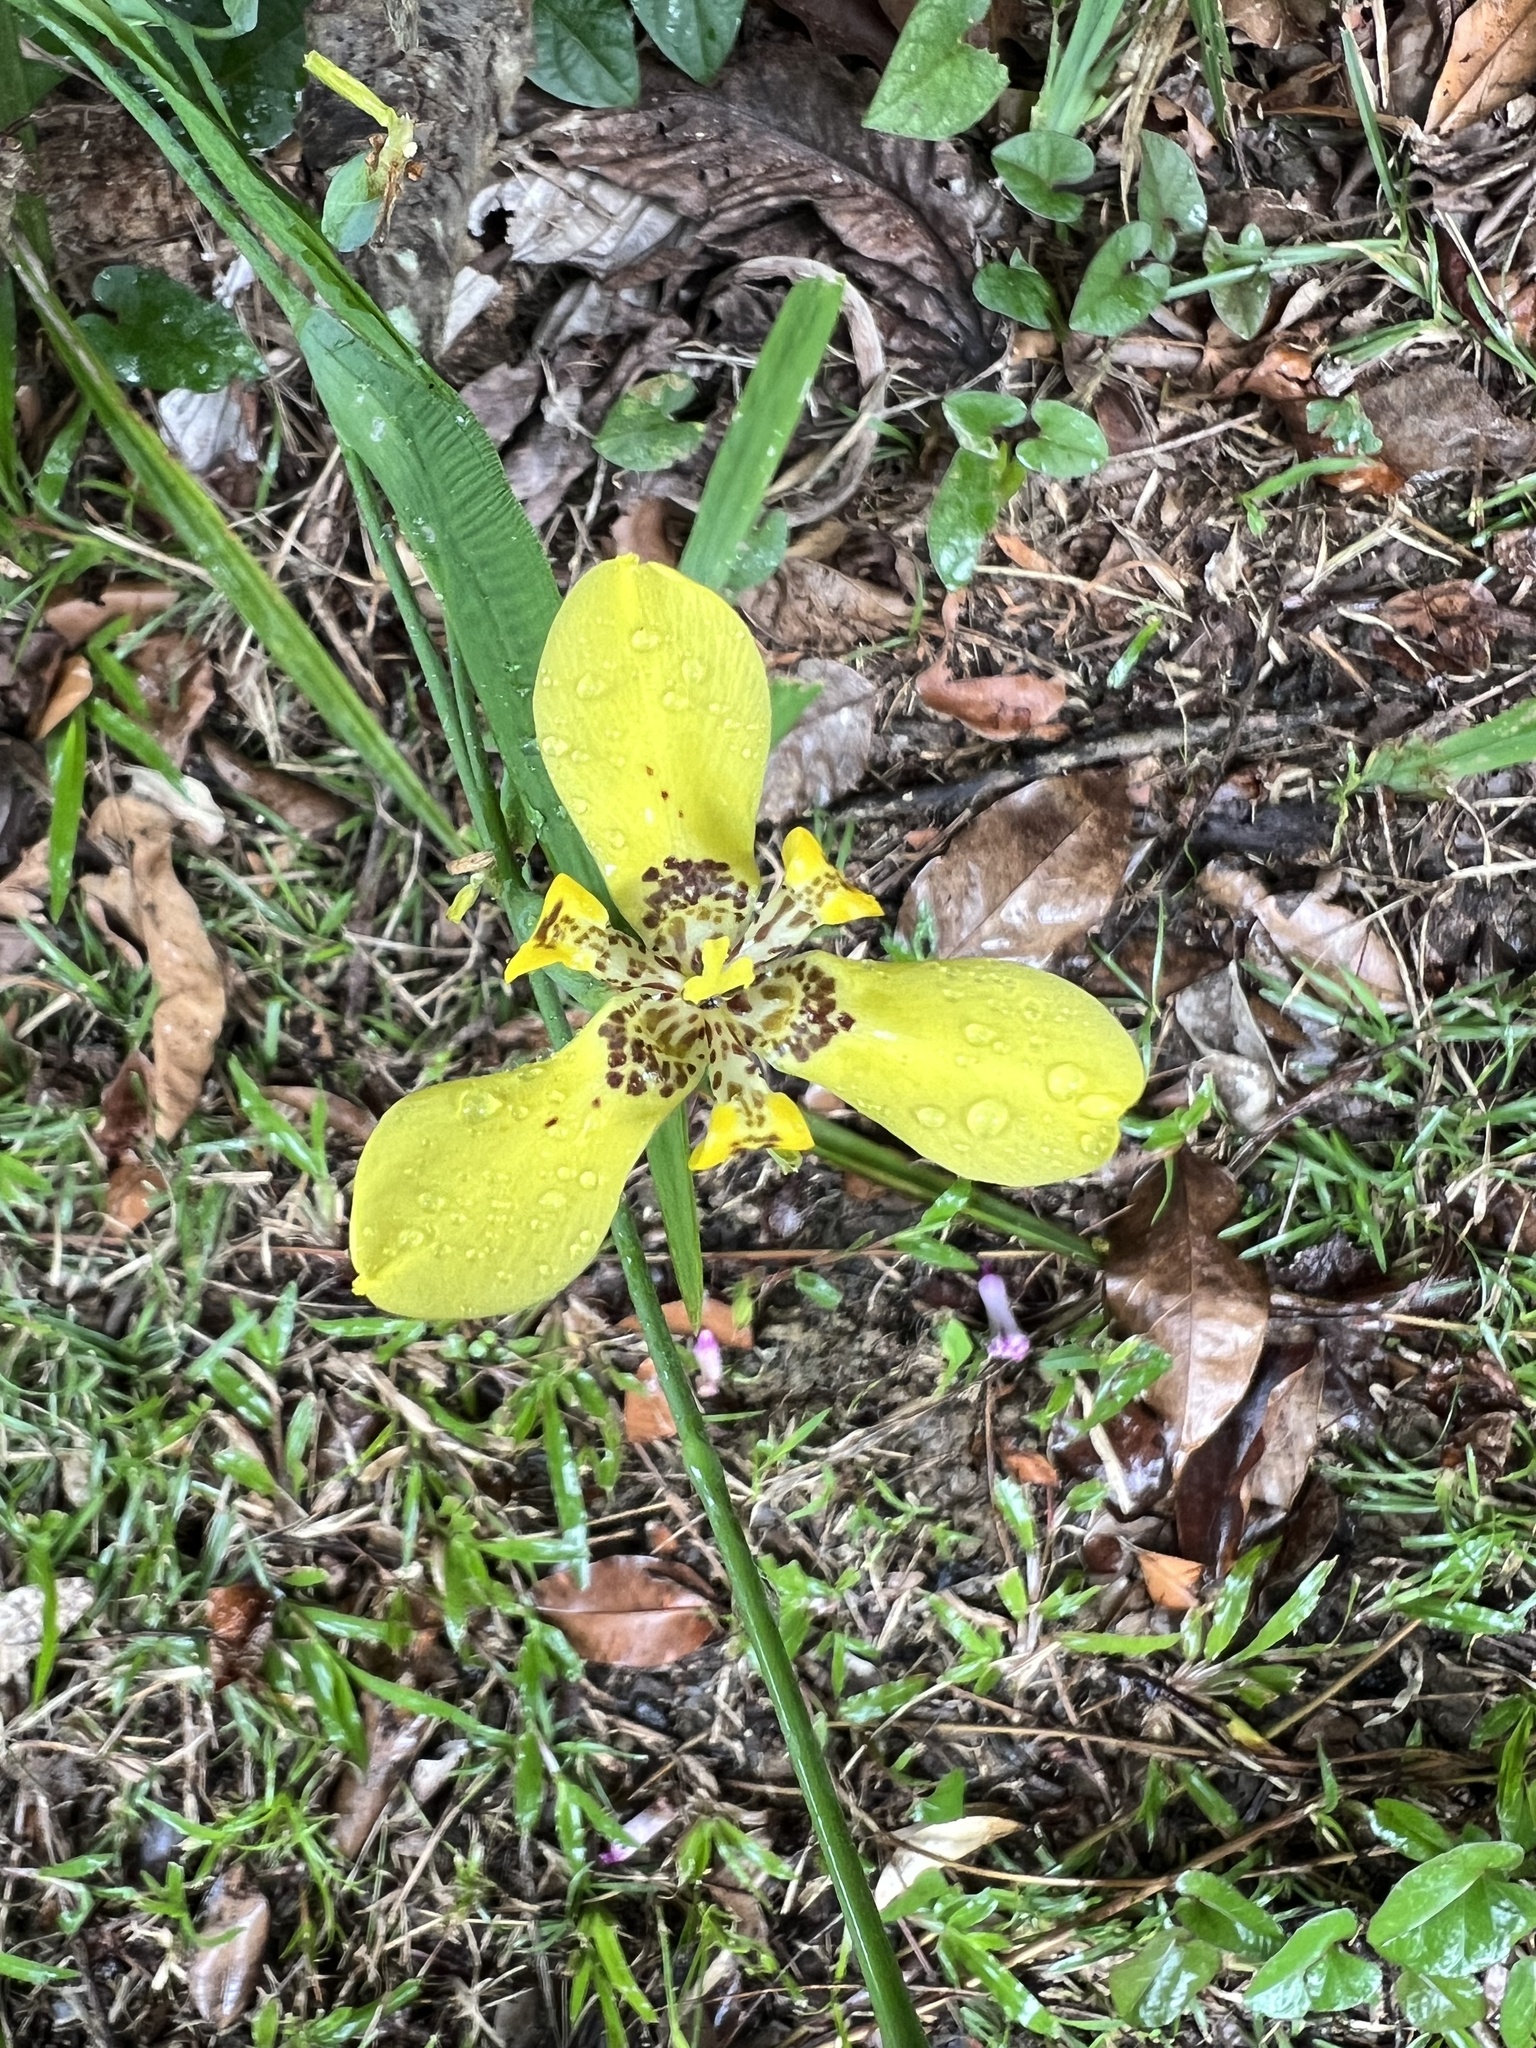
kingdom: Plantae
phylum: Tracheophyta
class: Liliopsida
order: Asparagales
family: Iridaceae
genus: Trimezia
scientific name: Trimezia steyermarkii
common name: Trimezia
